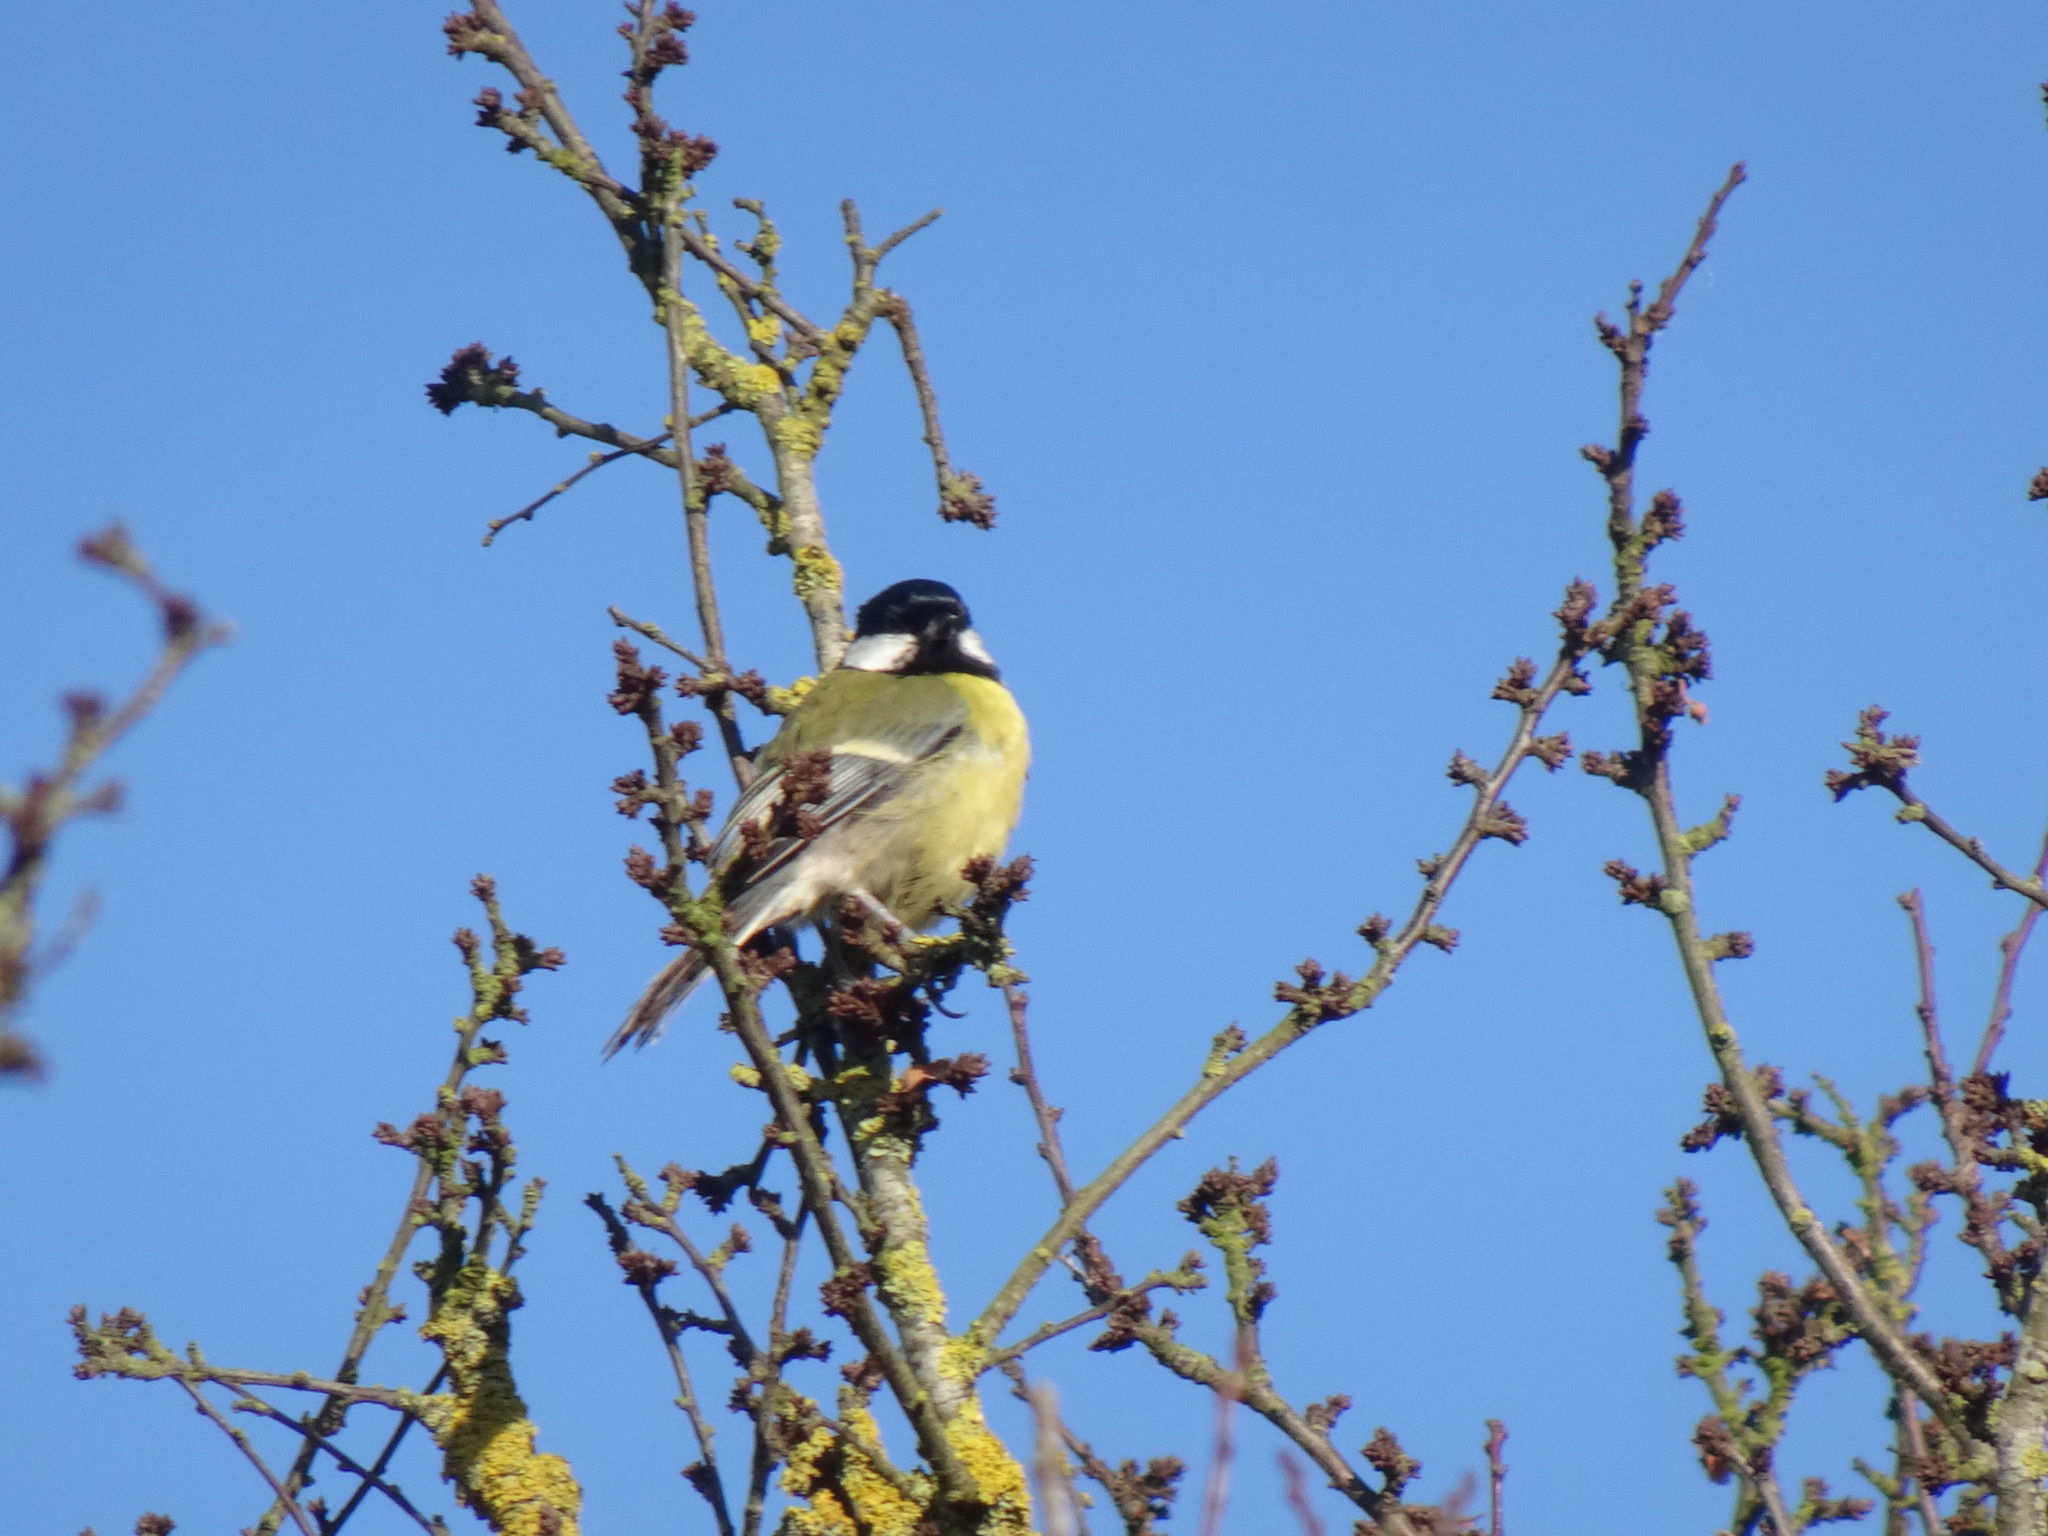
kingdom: Animalia
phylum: Chordata
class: Aves
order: Passeriformes
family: Paridae
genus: Parus
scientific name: Parus major
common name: Great tit
